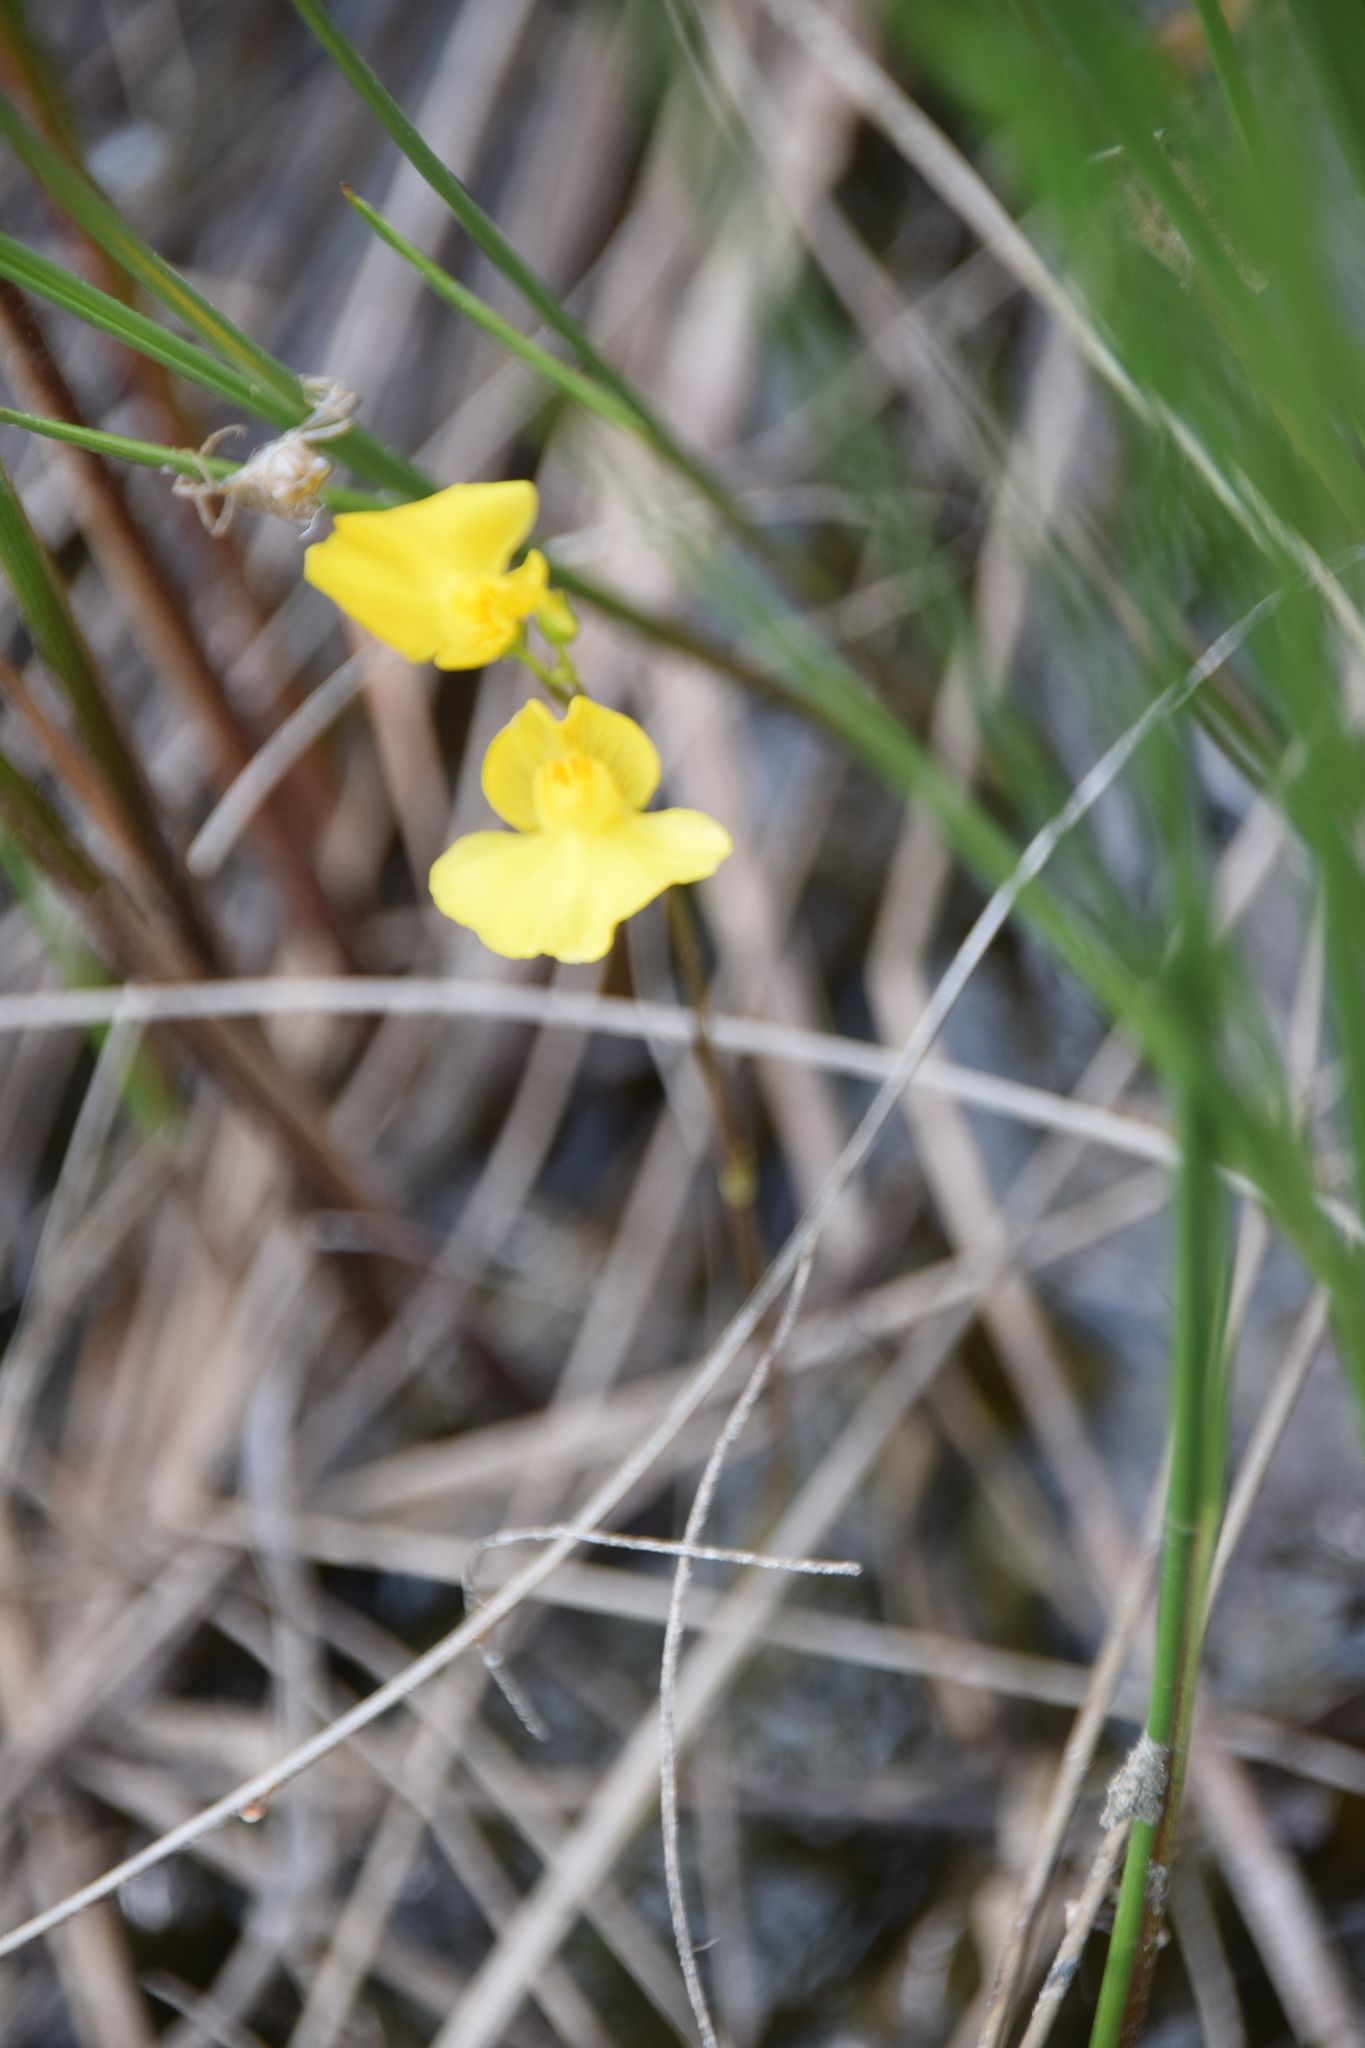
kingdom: Plantae
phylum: Tracheophyta
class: Magnoliopsida
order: Lamiales
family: Lentibulariaceae
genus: Utricularia
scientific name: Utricularia intermedia
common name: Intermediate bladderwort
